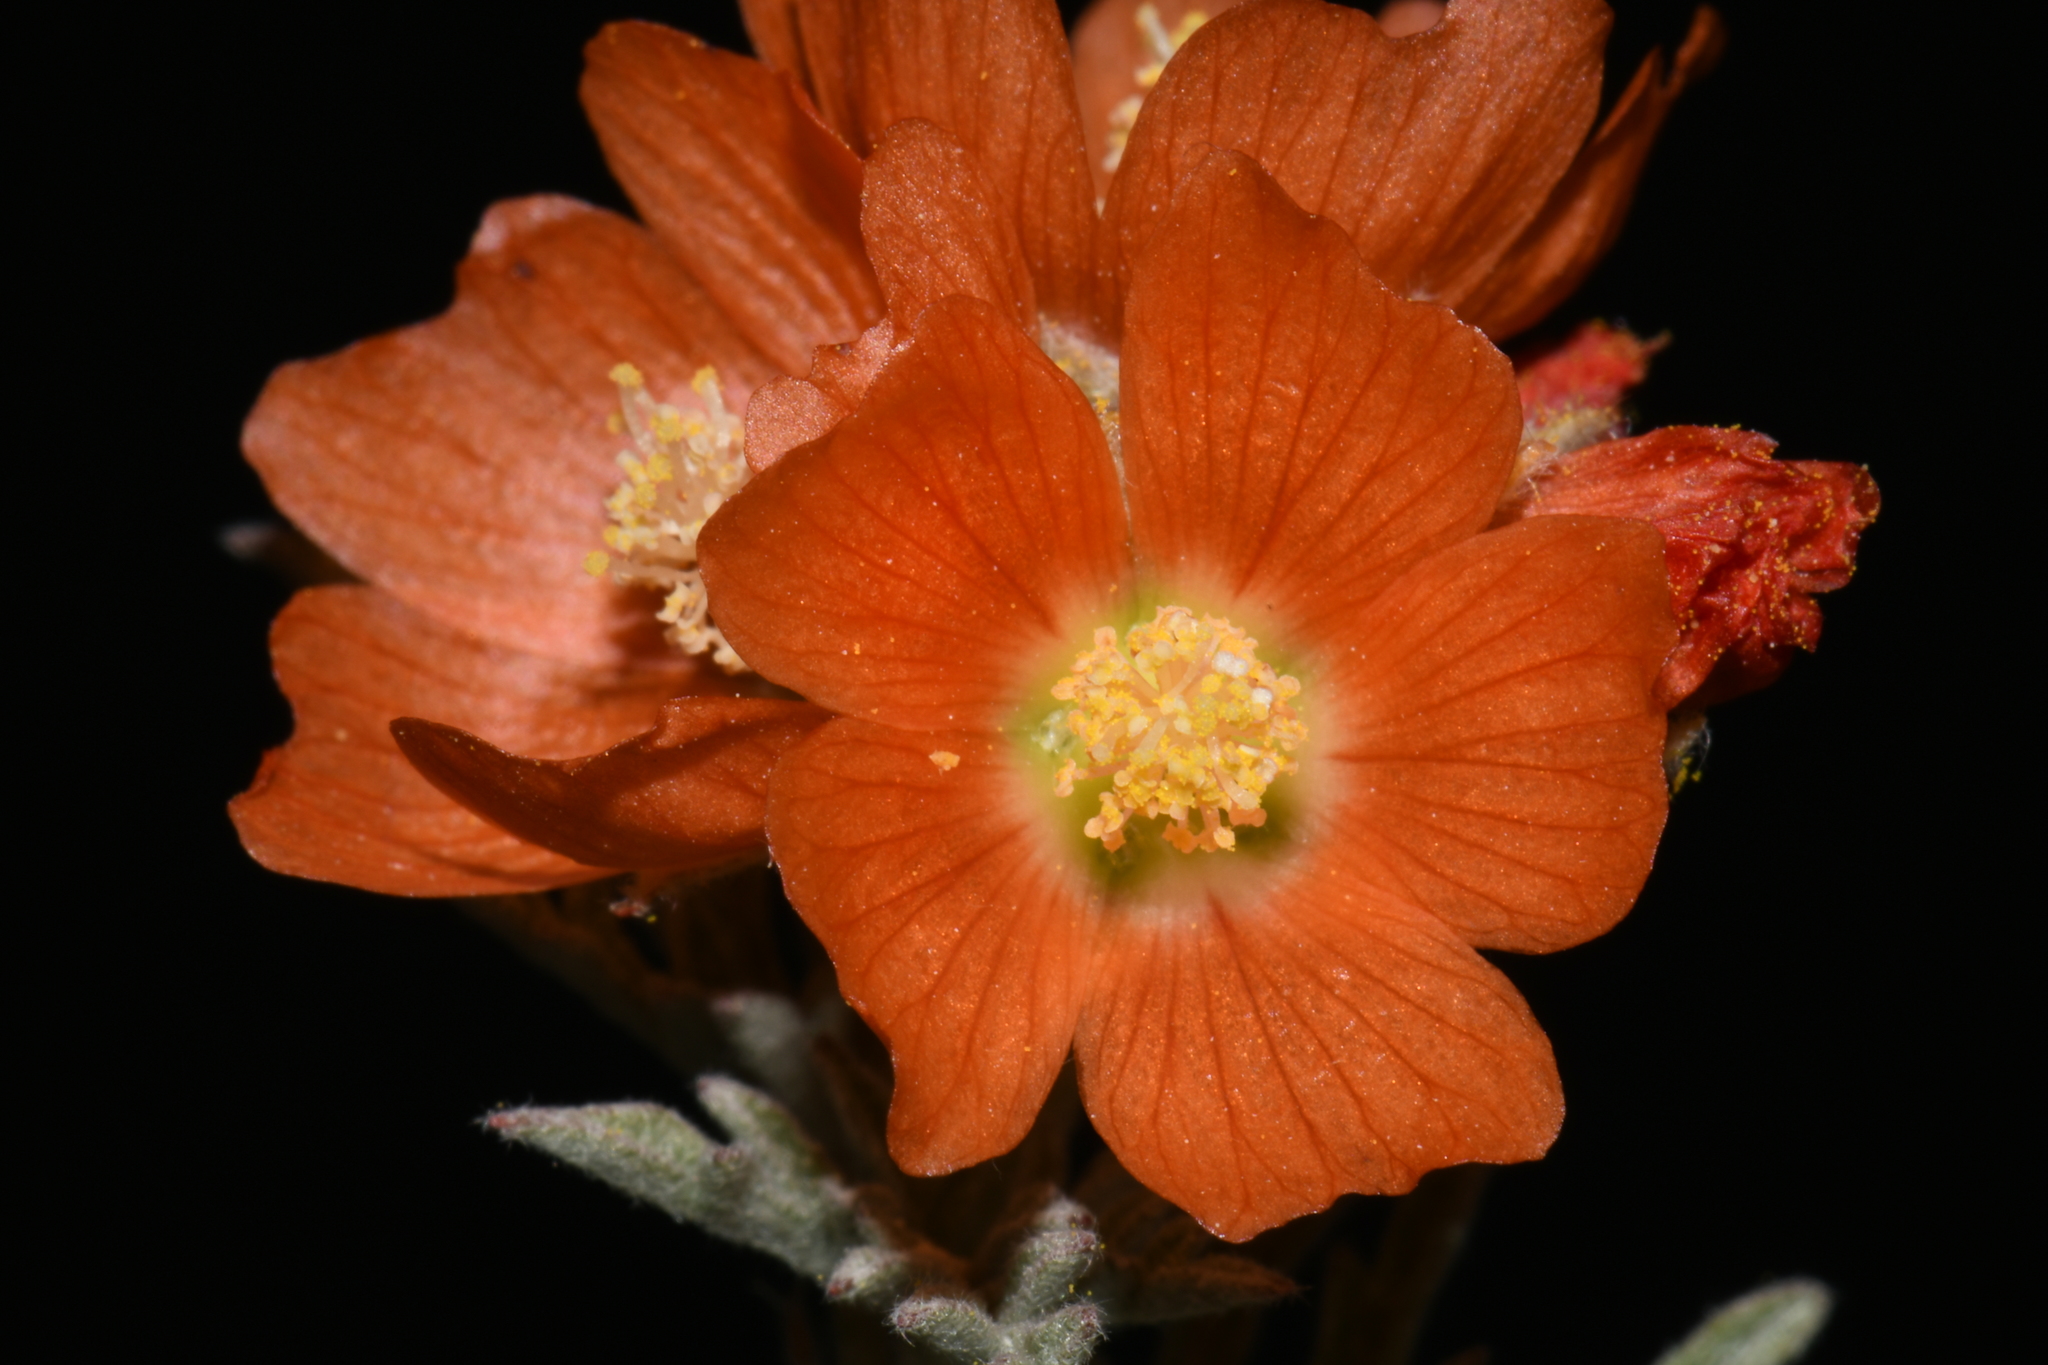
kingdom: Plantae
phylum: Tracheophyta
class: Magnoliopsida
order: Malvales
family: Malvaceae
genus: Sphaeralcea
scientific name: Sphaeralcea coccinea
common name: Moss-rose
